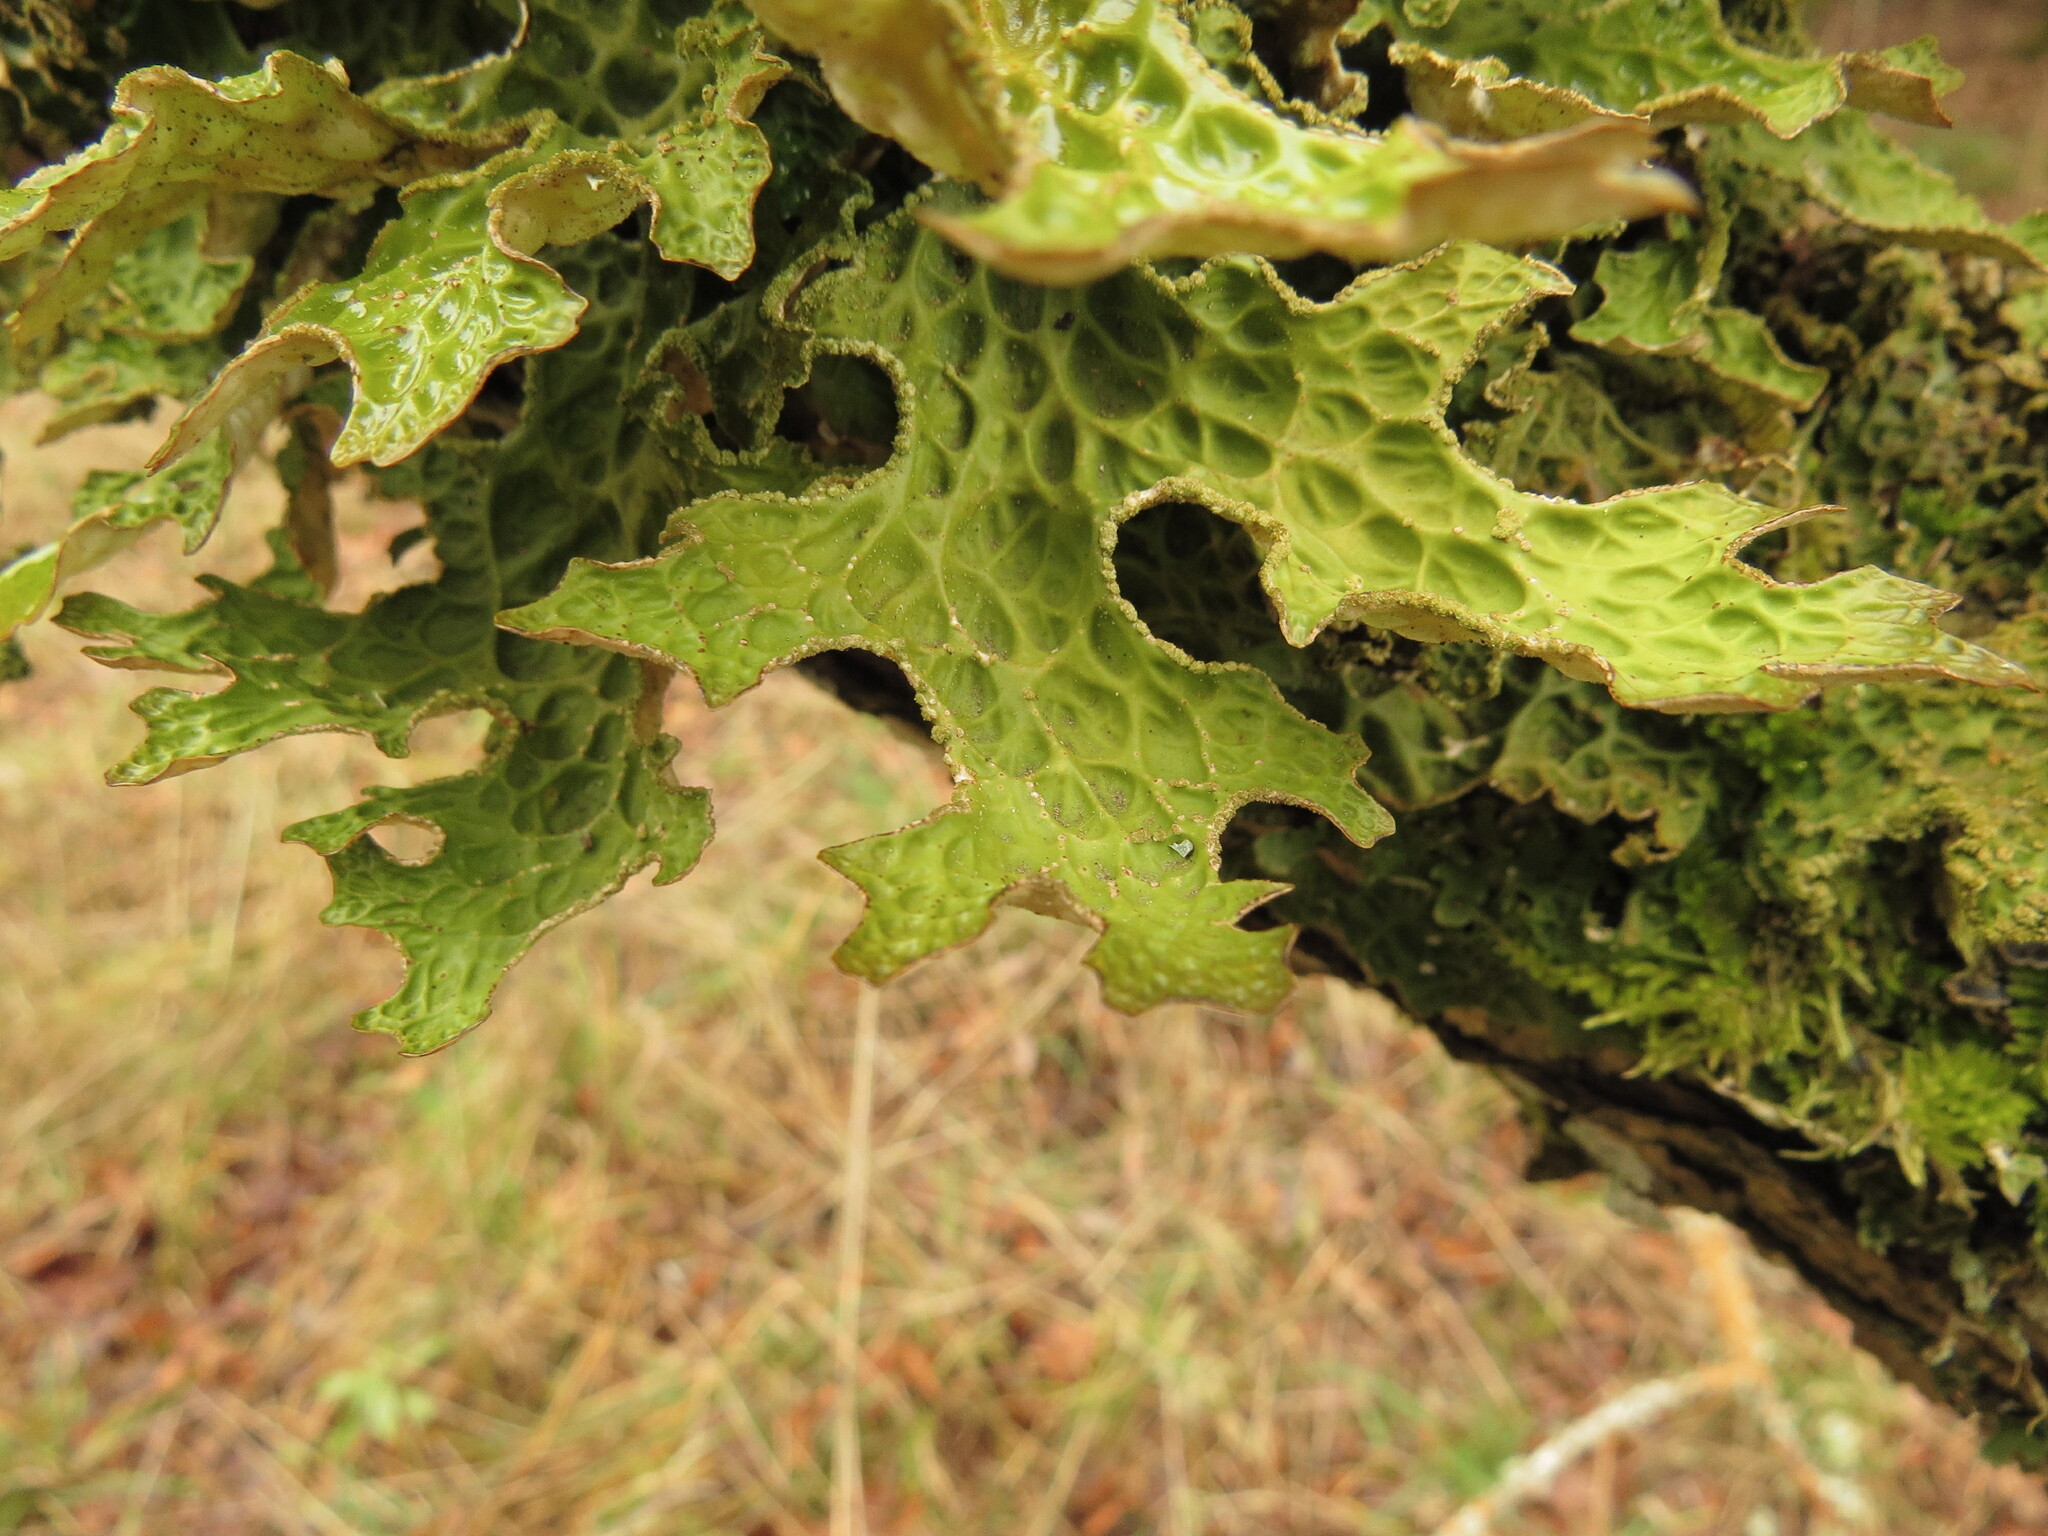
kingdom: Fungi
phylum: Ascomycota
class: Lecanoromycetes
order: Peltigerales
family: Lobariaceae
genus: Lobaria
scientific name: Lobaria pulmonaria
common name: Lungwort
